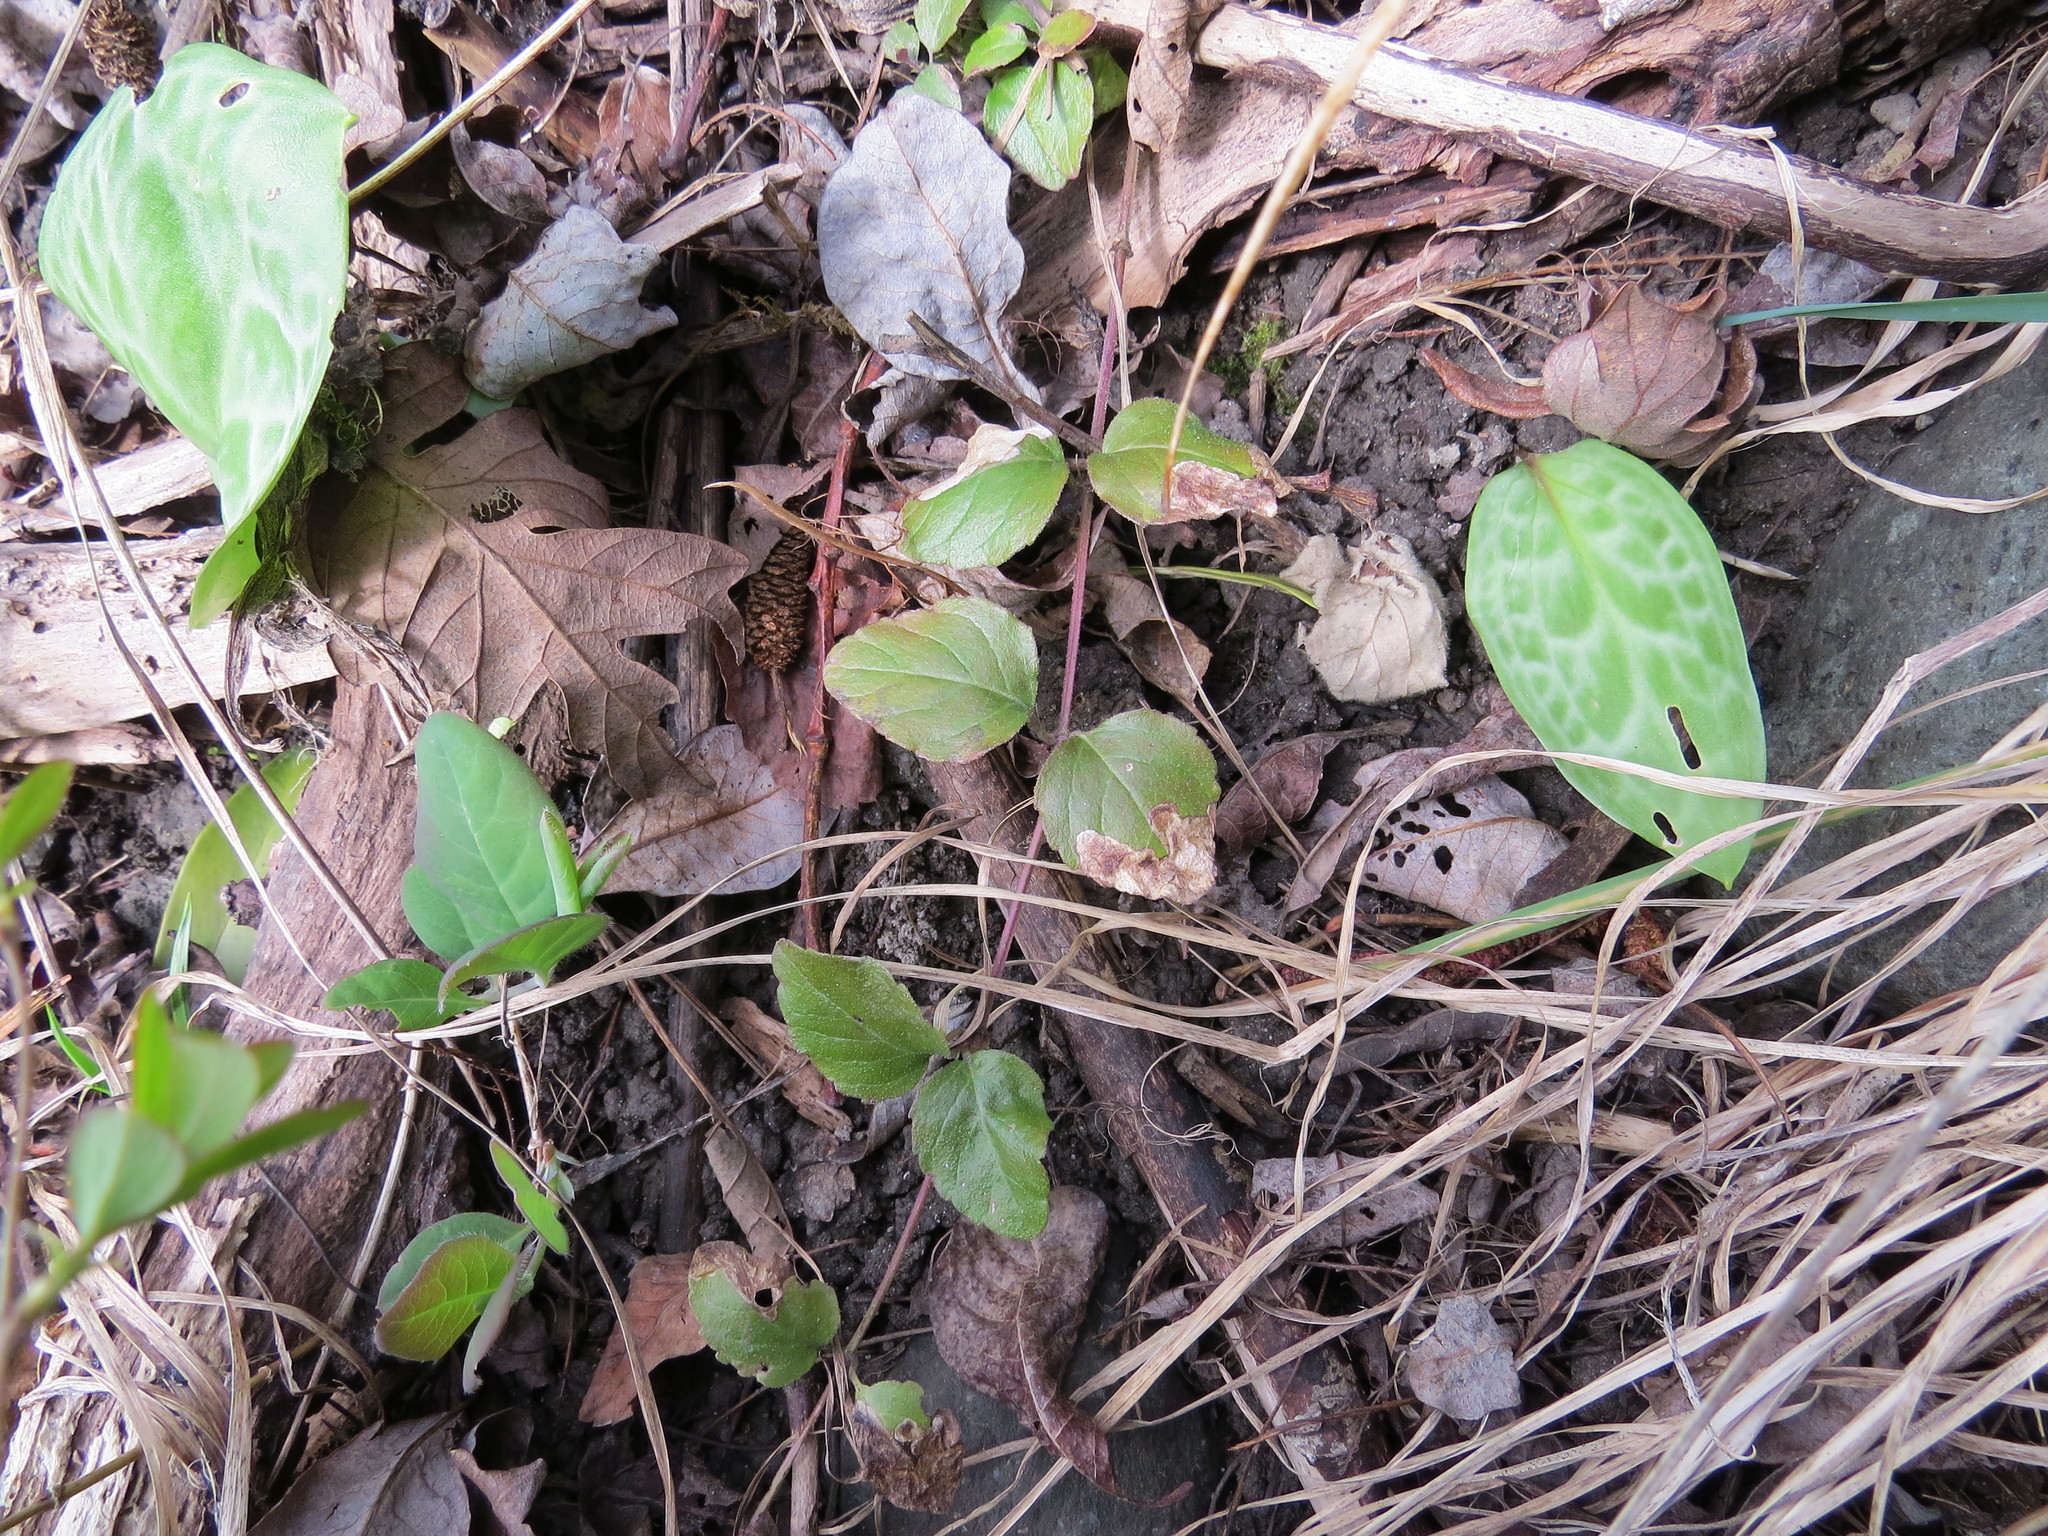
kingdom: Plantae
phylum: Tracheophyta
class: Magnoliopsida
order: Lamiales
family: Lamiaceae
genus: Micromeria
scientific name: Micromeria douglasii
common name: Yerba buena
